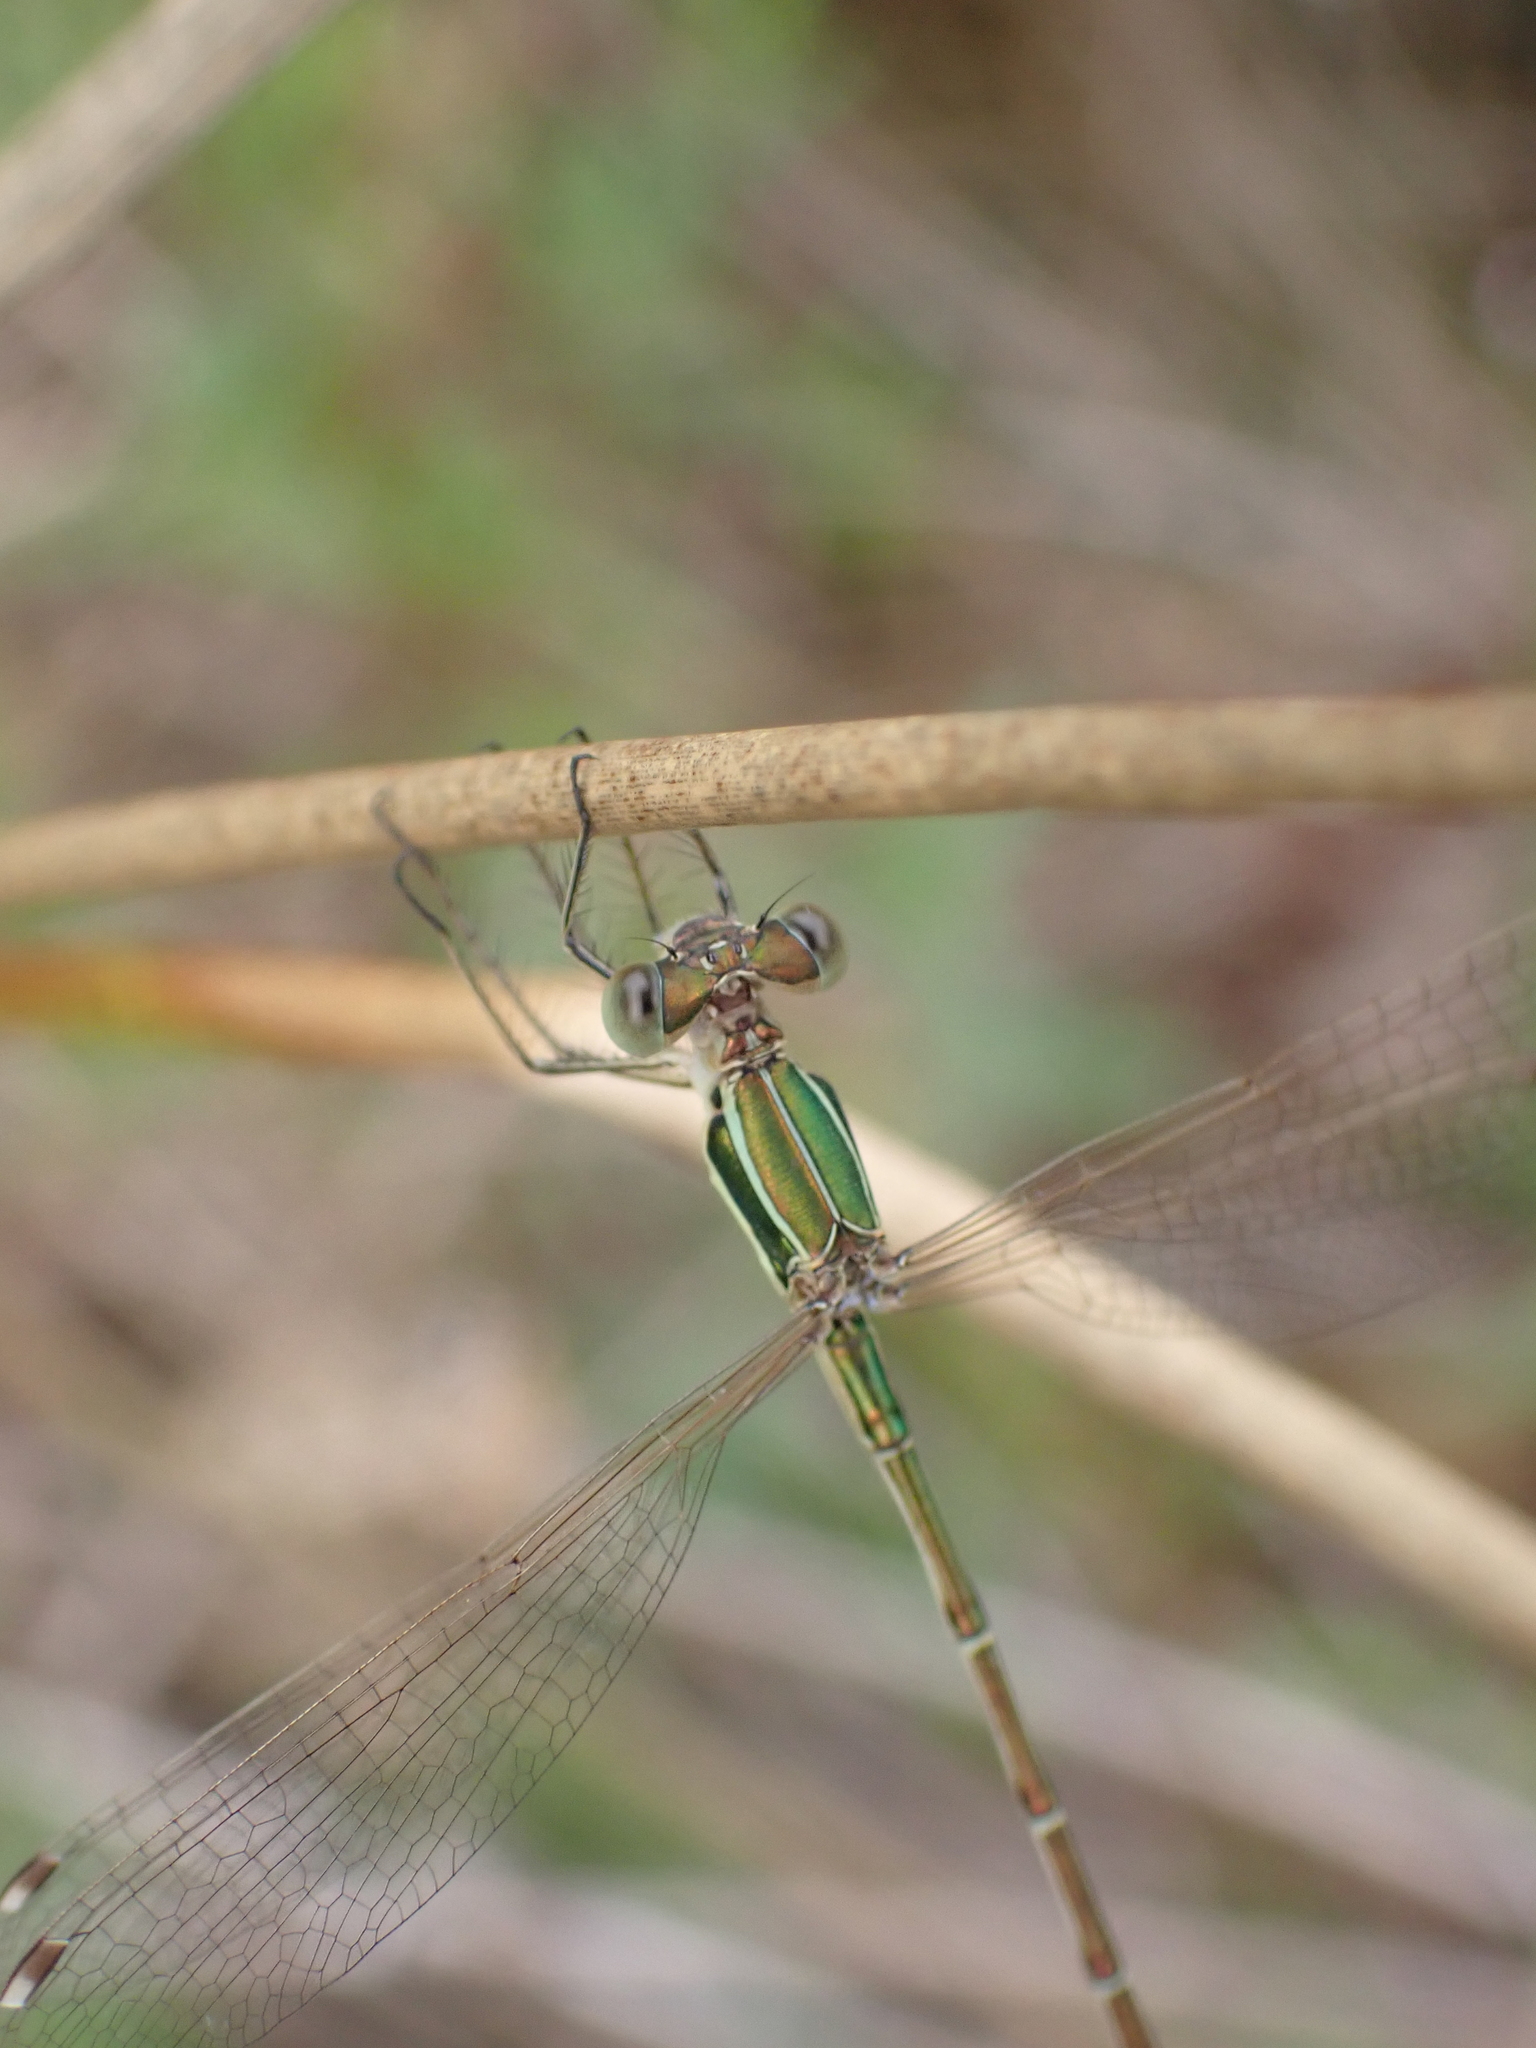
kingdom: Animalia
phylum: Arthropoda
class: Insecta
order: Odonata
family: Lestidae
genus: Lestes
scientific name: Lestes barbarus
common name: Migrant spreadwing
